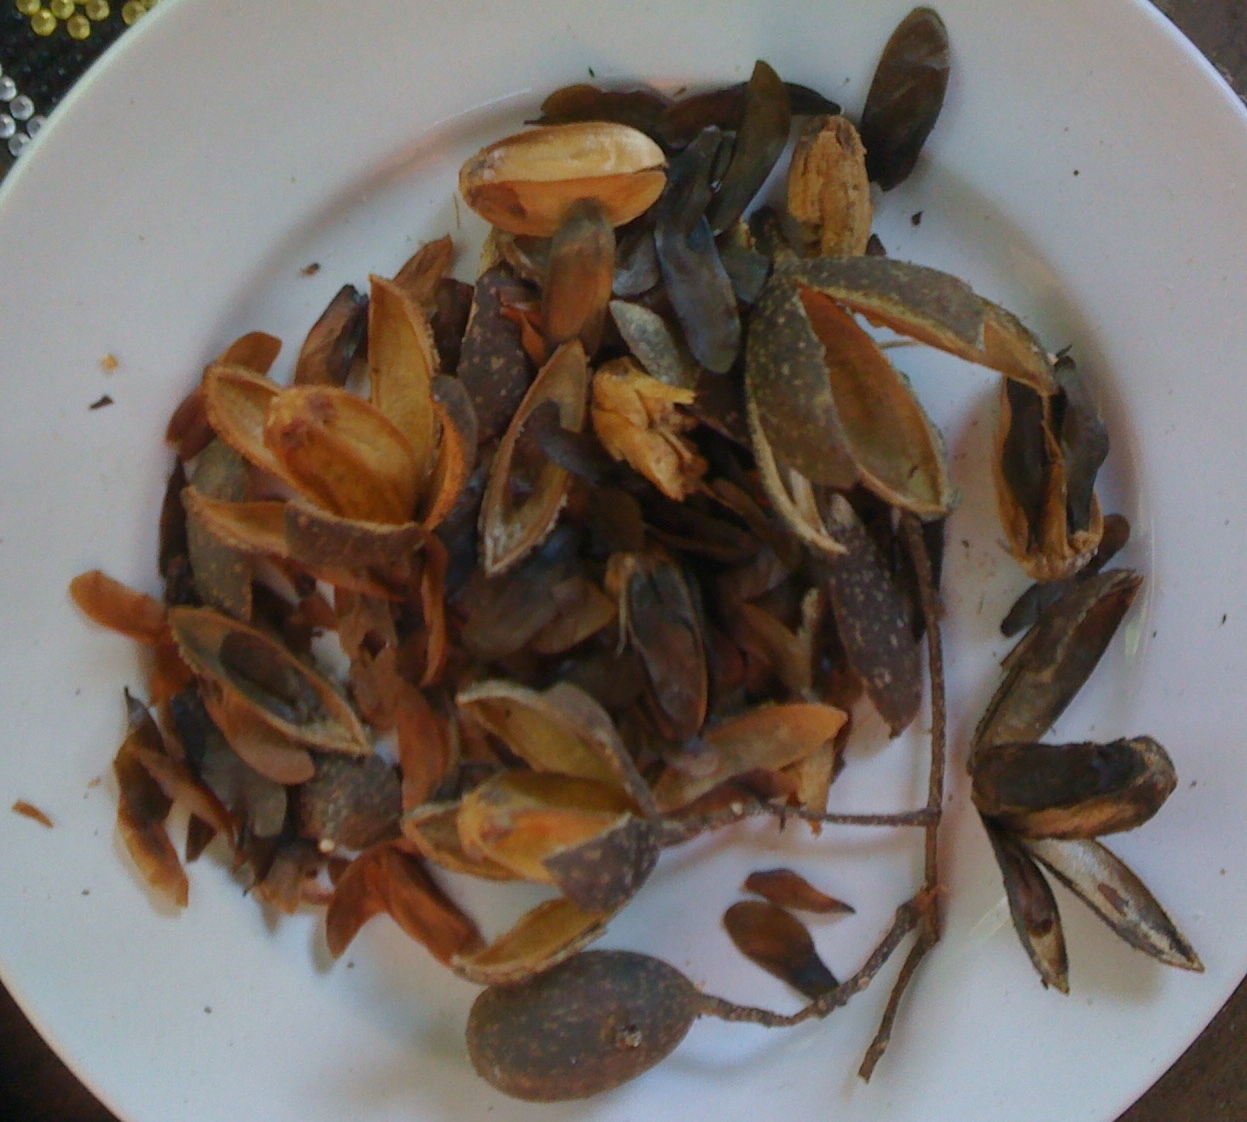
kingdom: Plantae
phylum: Tracheophyta
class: Magnoliopsida
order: Sapindales
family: Meliaceae
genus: Cedrela
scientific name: Cedrela odorata
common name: Red cedar
